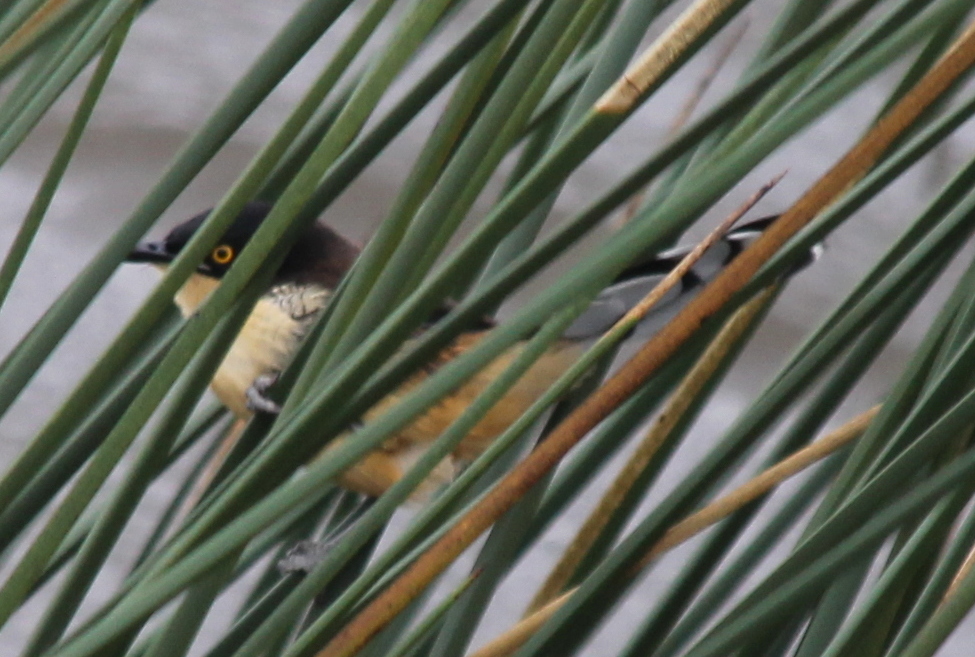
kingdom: Animalia
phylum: Chordata
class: Aves
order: Passeriformes
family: Donacobiidae
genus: Donacobius
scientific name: Donacobius atricapilla
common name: Black-capped donacobius
